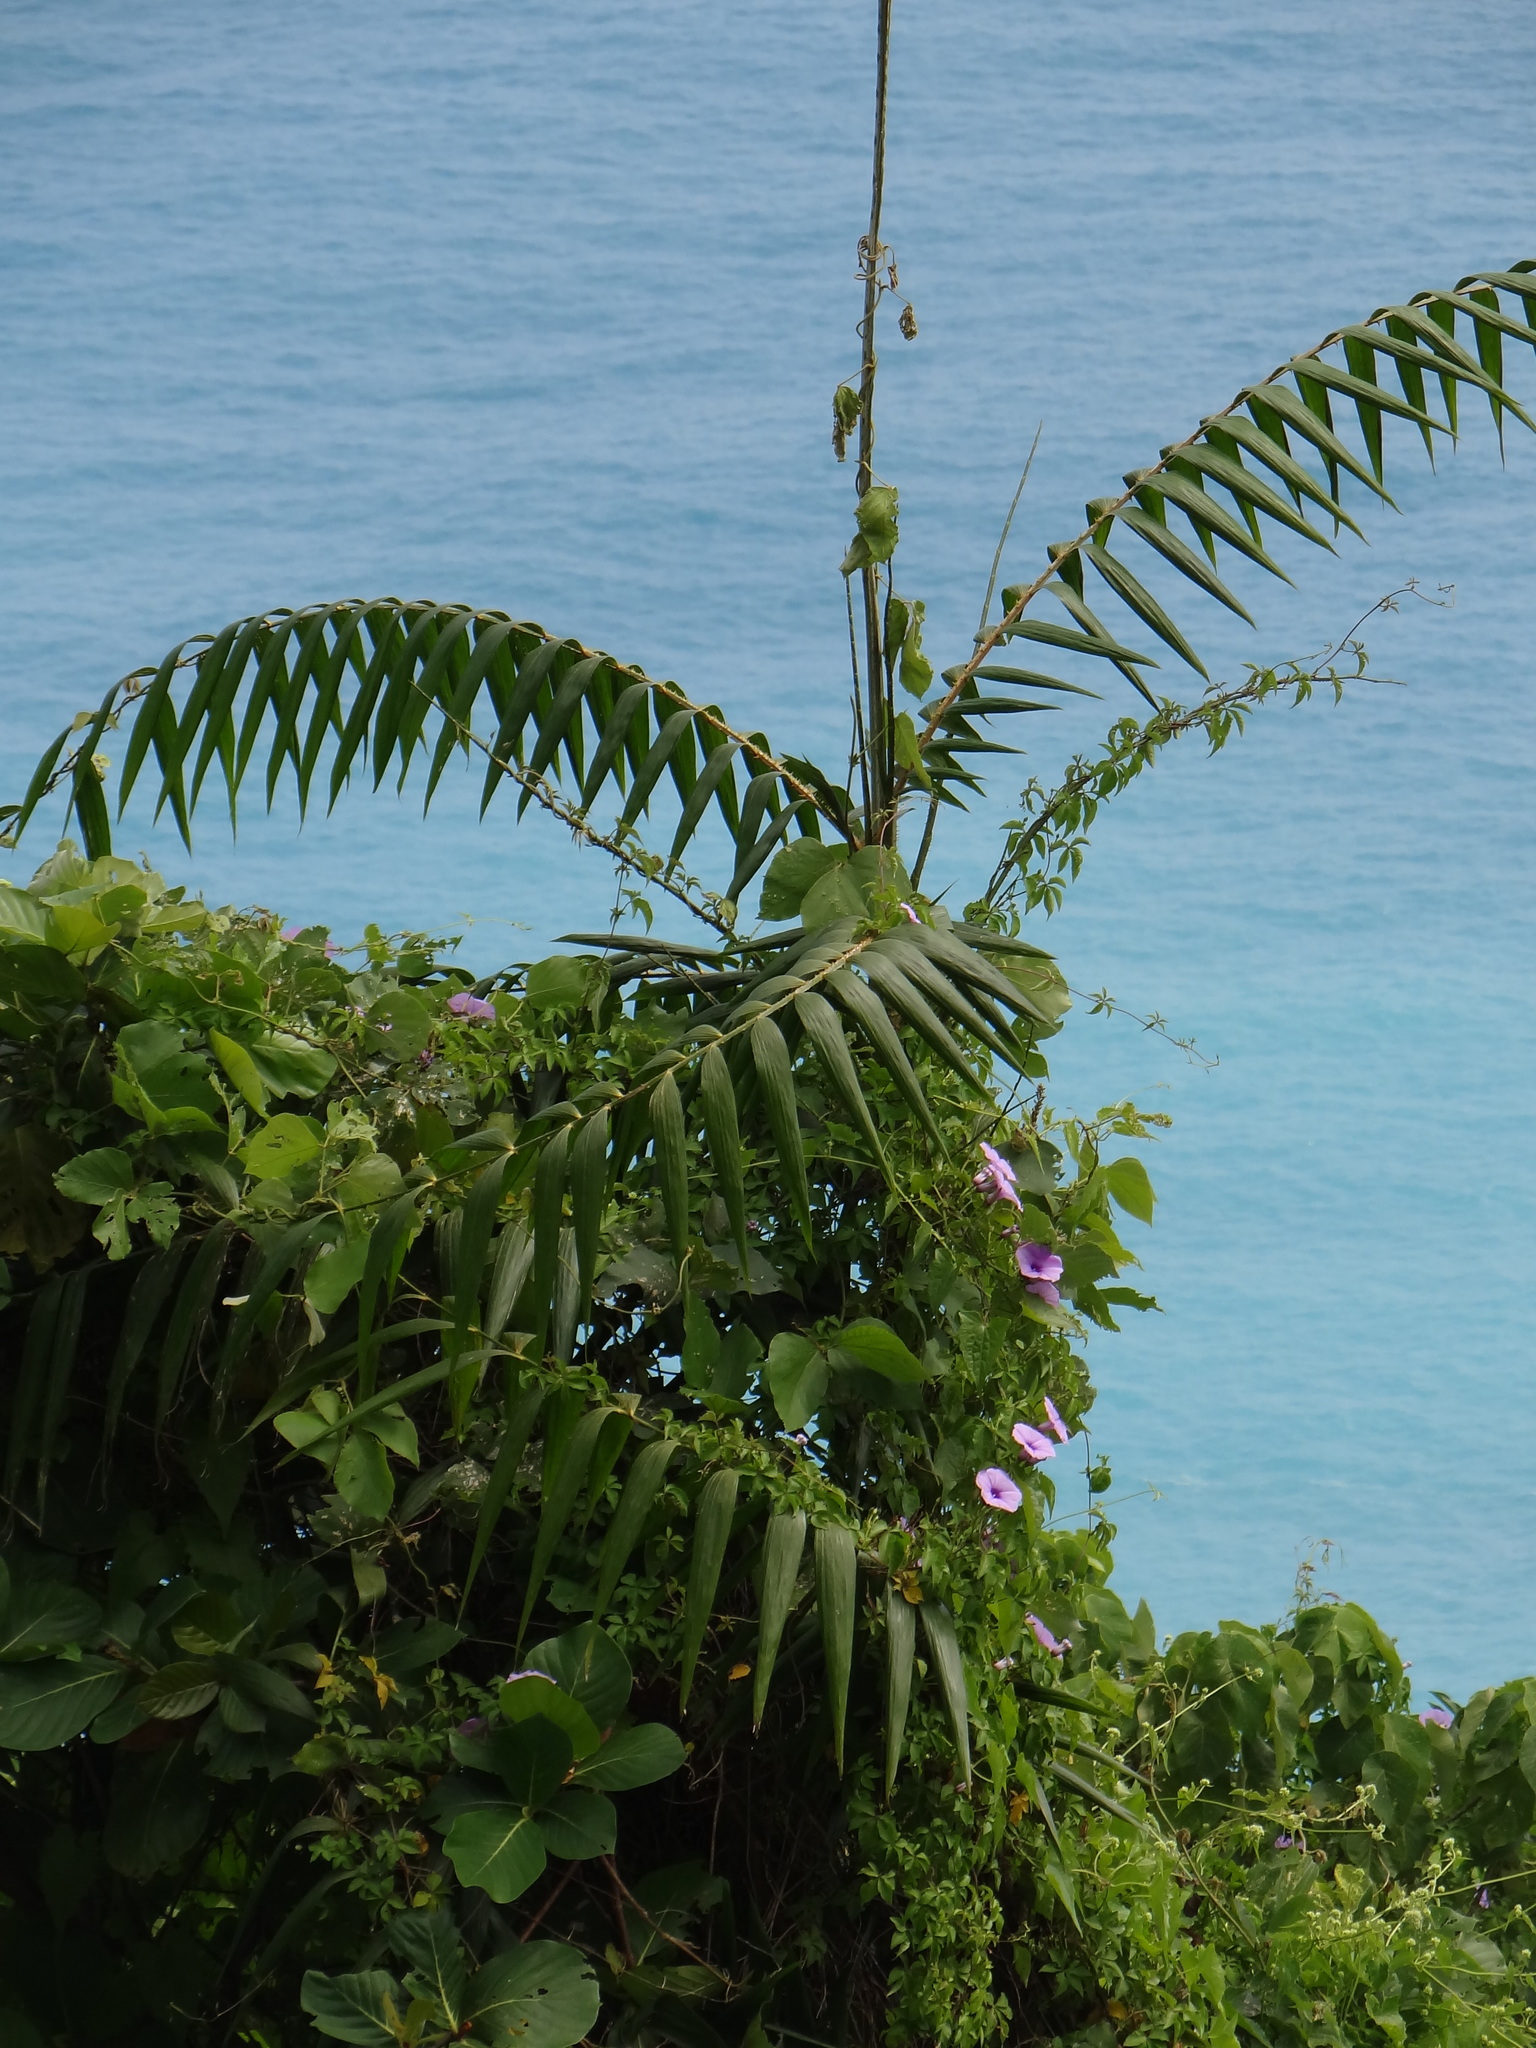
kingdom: Plantae
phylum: Tracheophyta
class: Liliopsida
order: Arecales
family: Arecaceae
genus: Calamus
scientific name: Calamus formosanus
